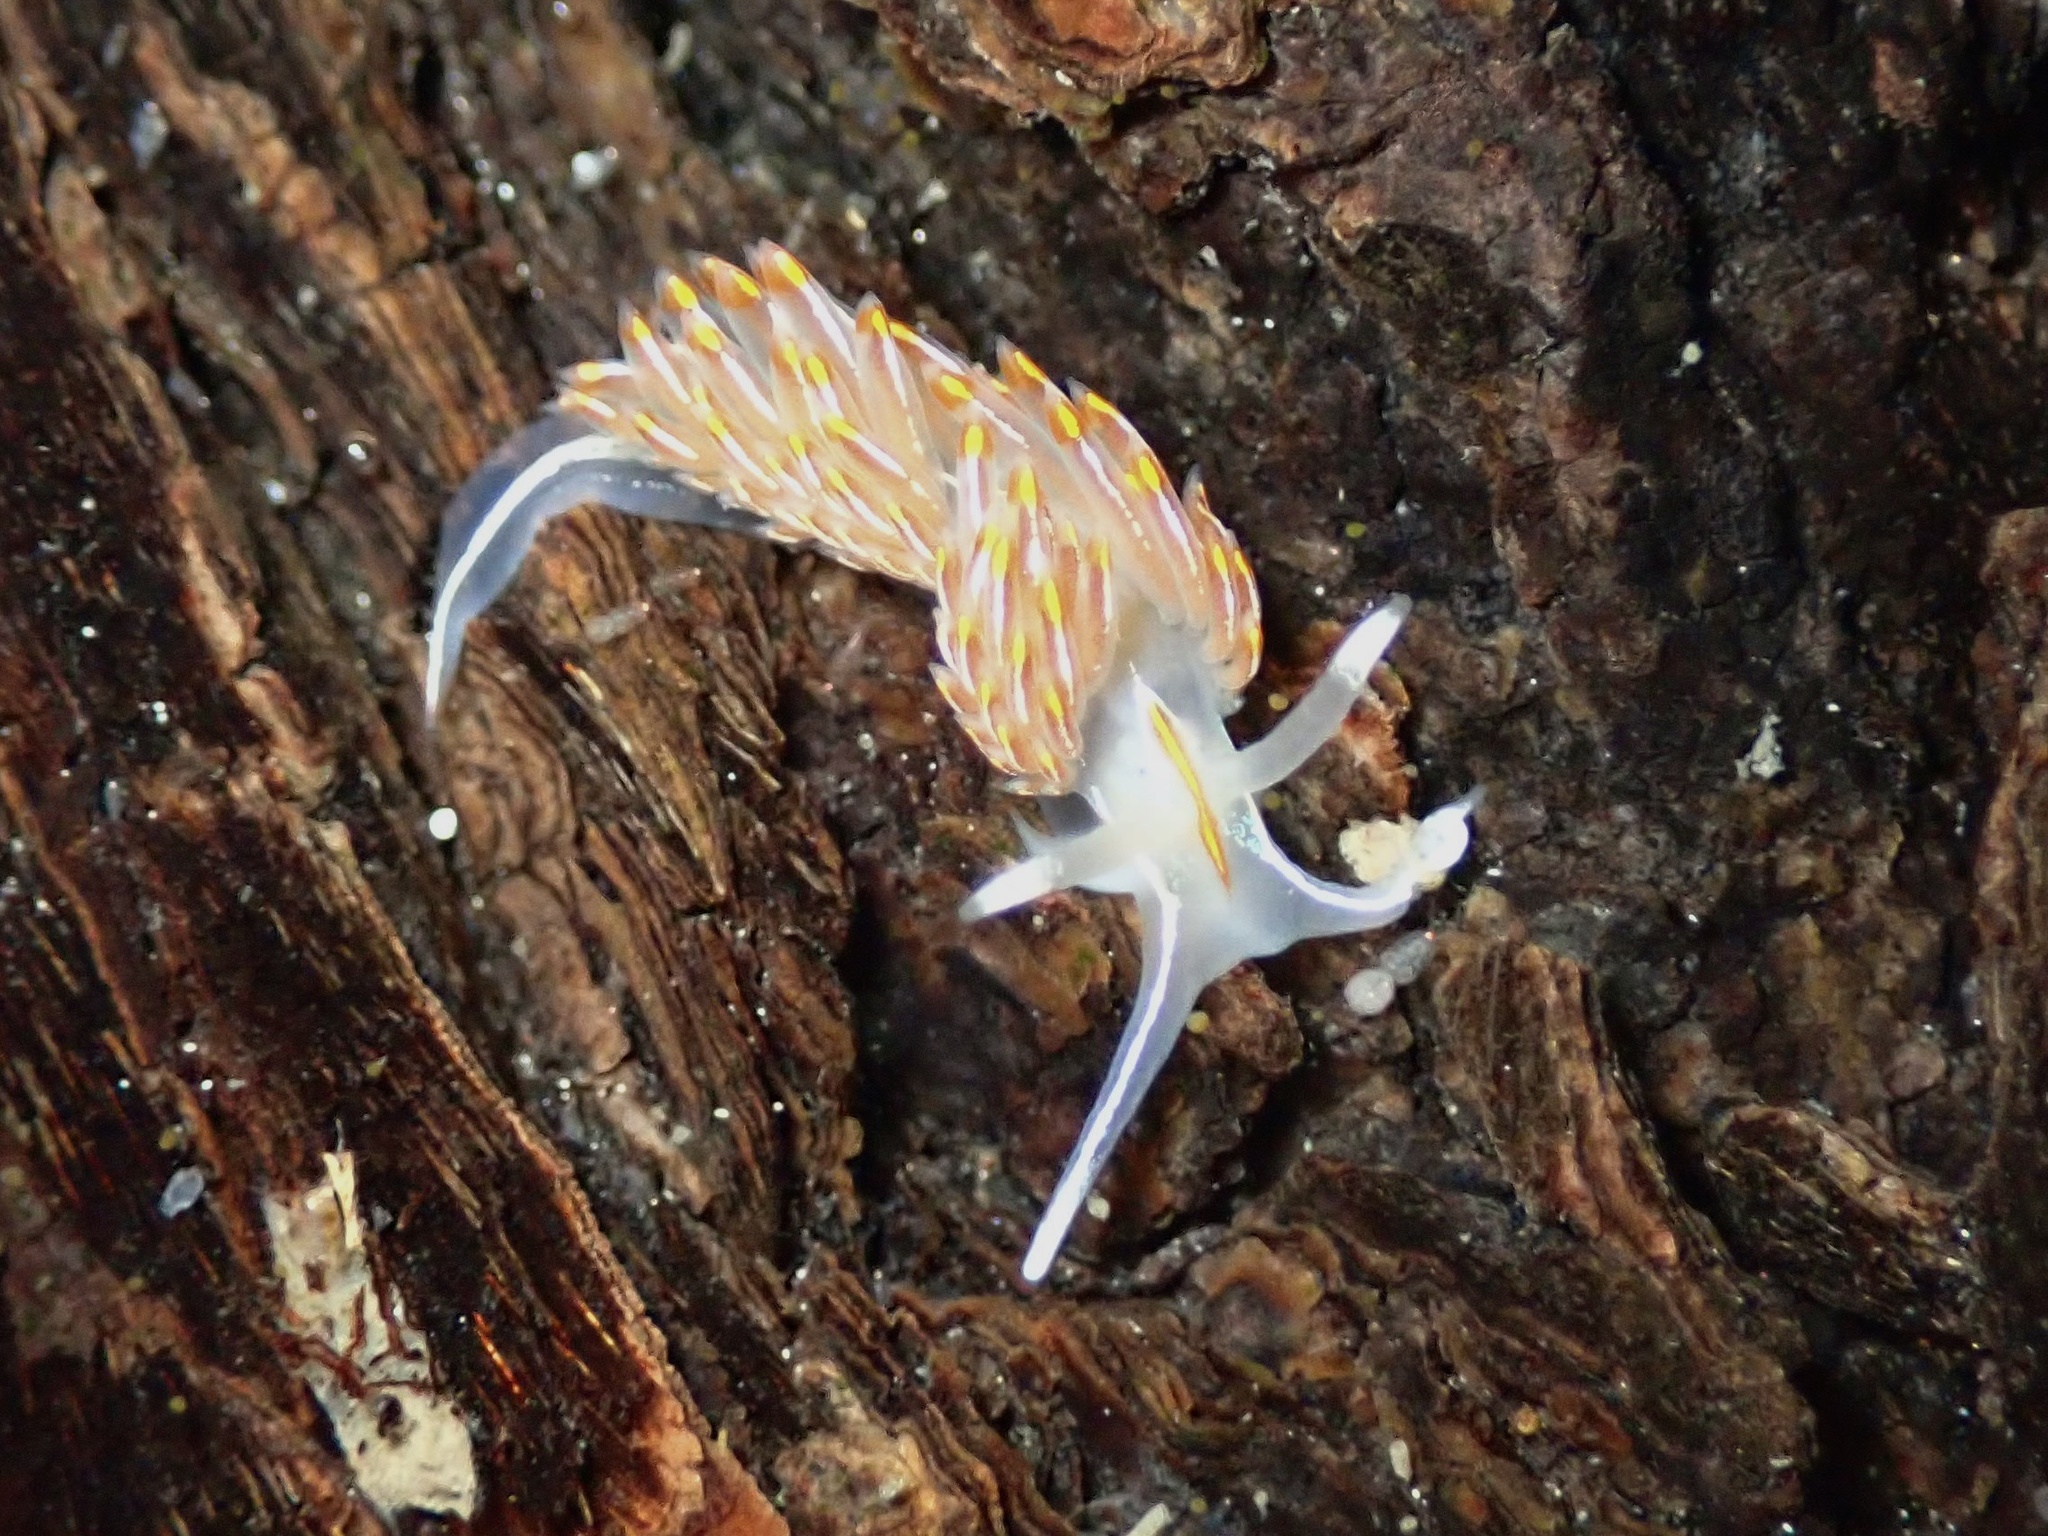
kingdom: Animalia
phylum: Mollusca
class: Gastropoda
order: Nudibranchia
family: Myrrhinidae
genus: Hermissenda
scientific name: Hermissenda crassicornis
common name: Hermissenda
